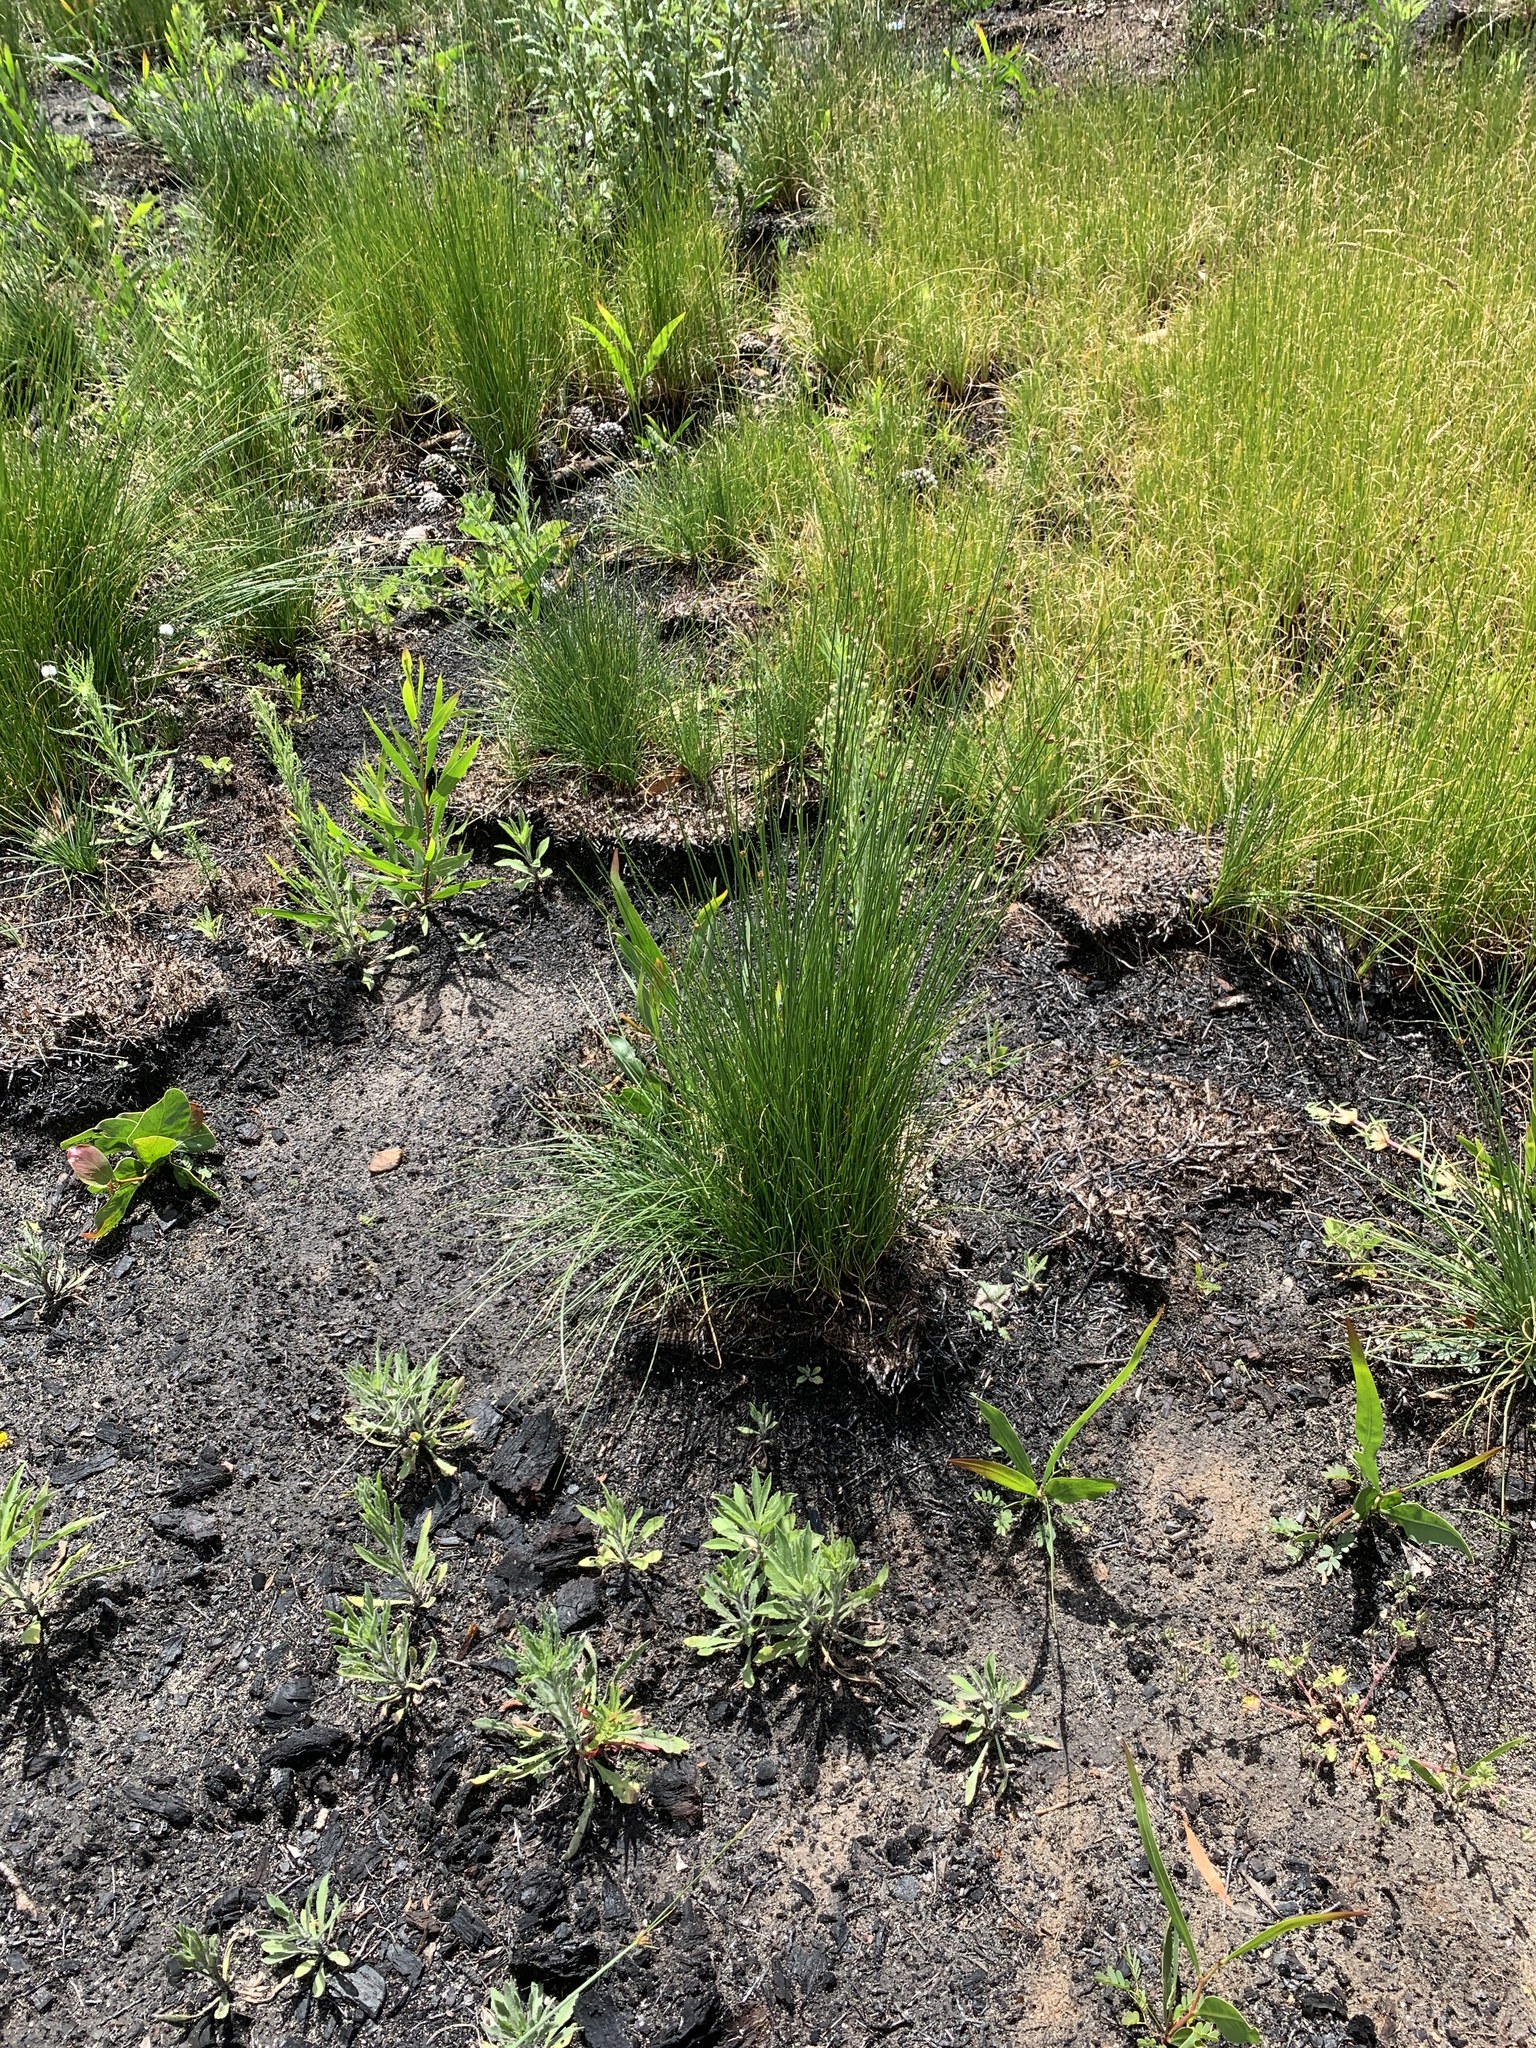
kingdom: Plantae
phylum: Tracheophyta
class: Liliopsida
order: Poales
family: Cyperaceae
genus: Ficinia
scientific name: Ficinia pallens
